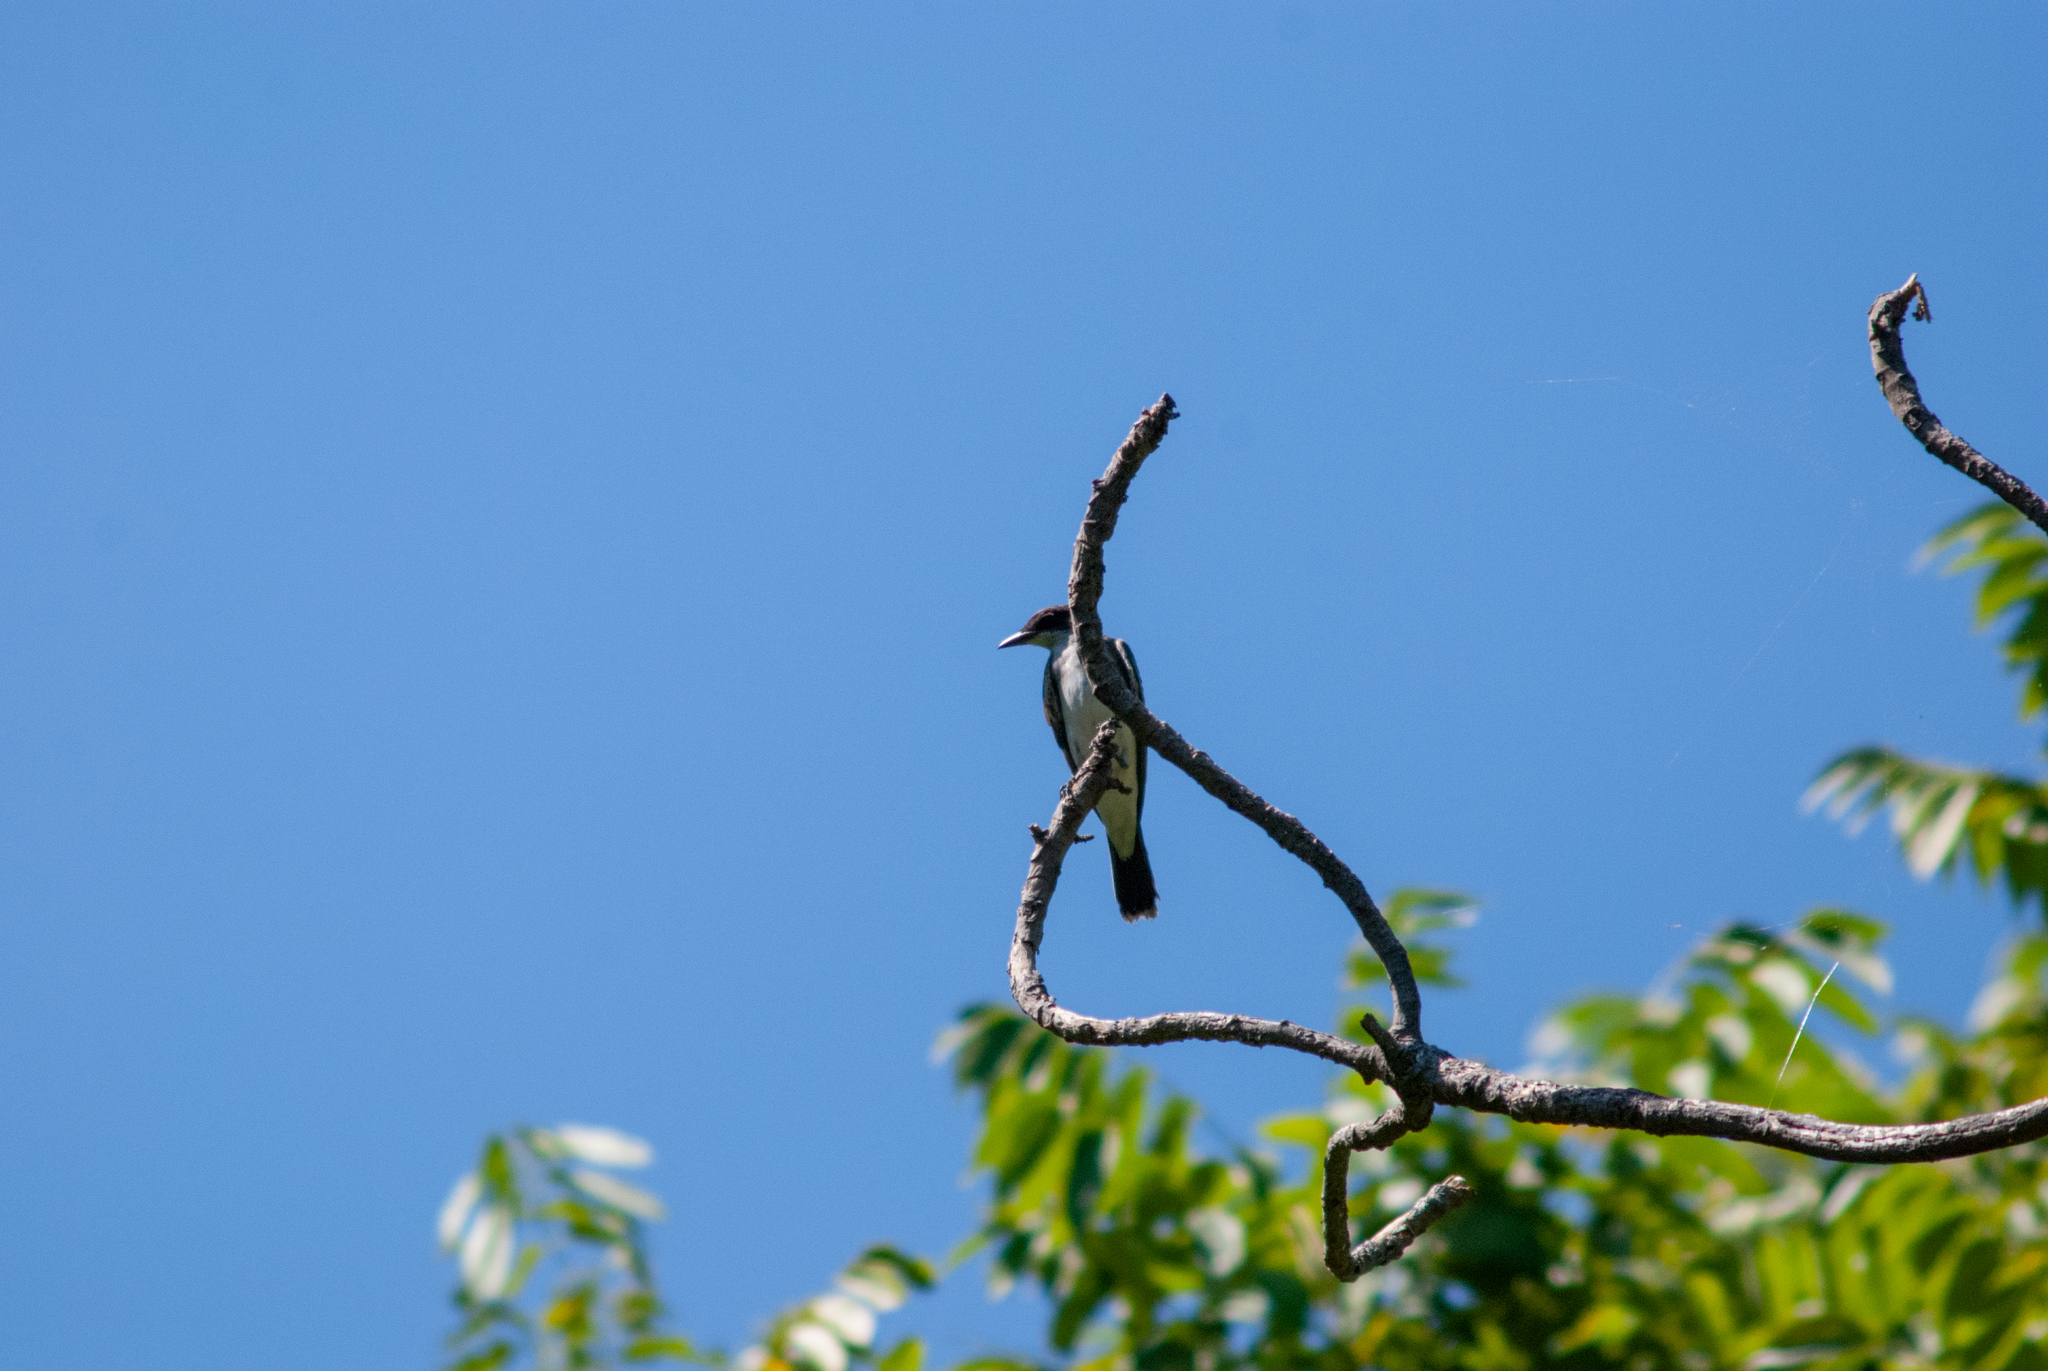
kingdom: Animalia
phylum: Chordata
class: Aves
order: Passeriformes
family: Tyrannidae
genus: Tyrannus
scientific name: Tyrannus tyrannus
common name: Eastern kingbird
